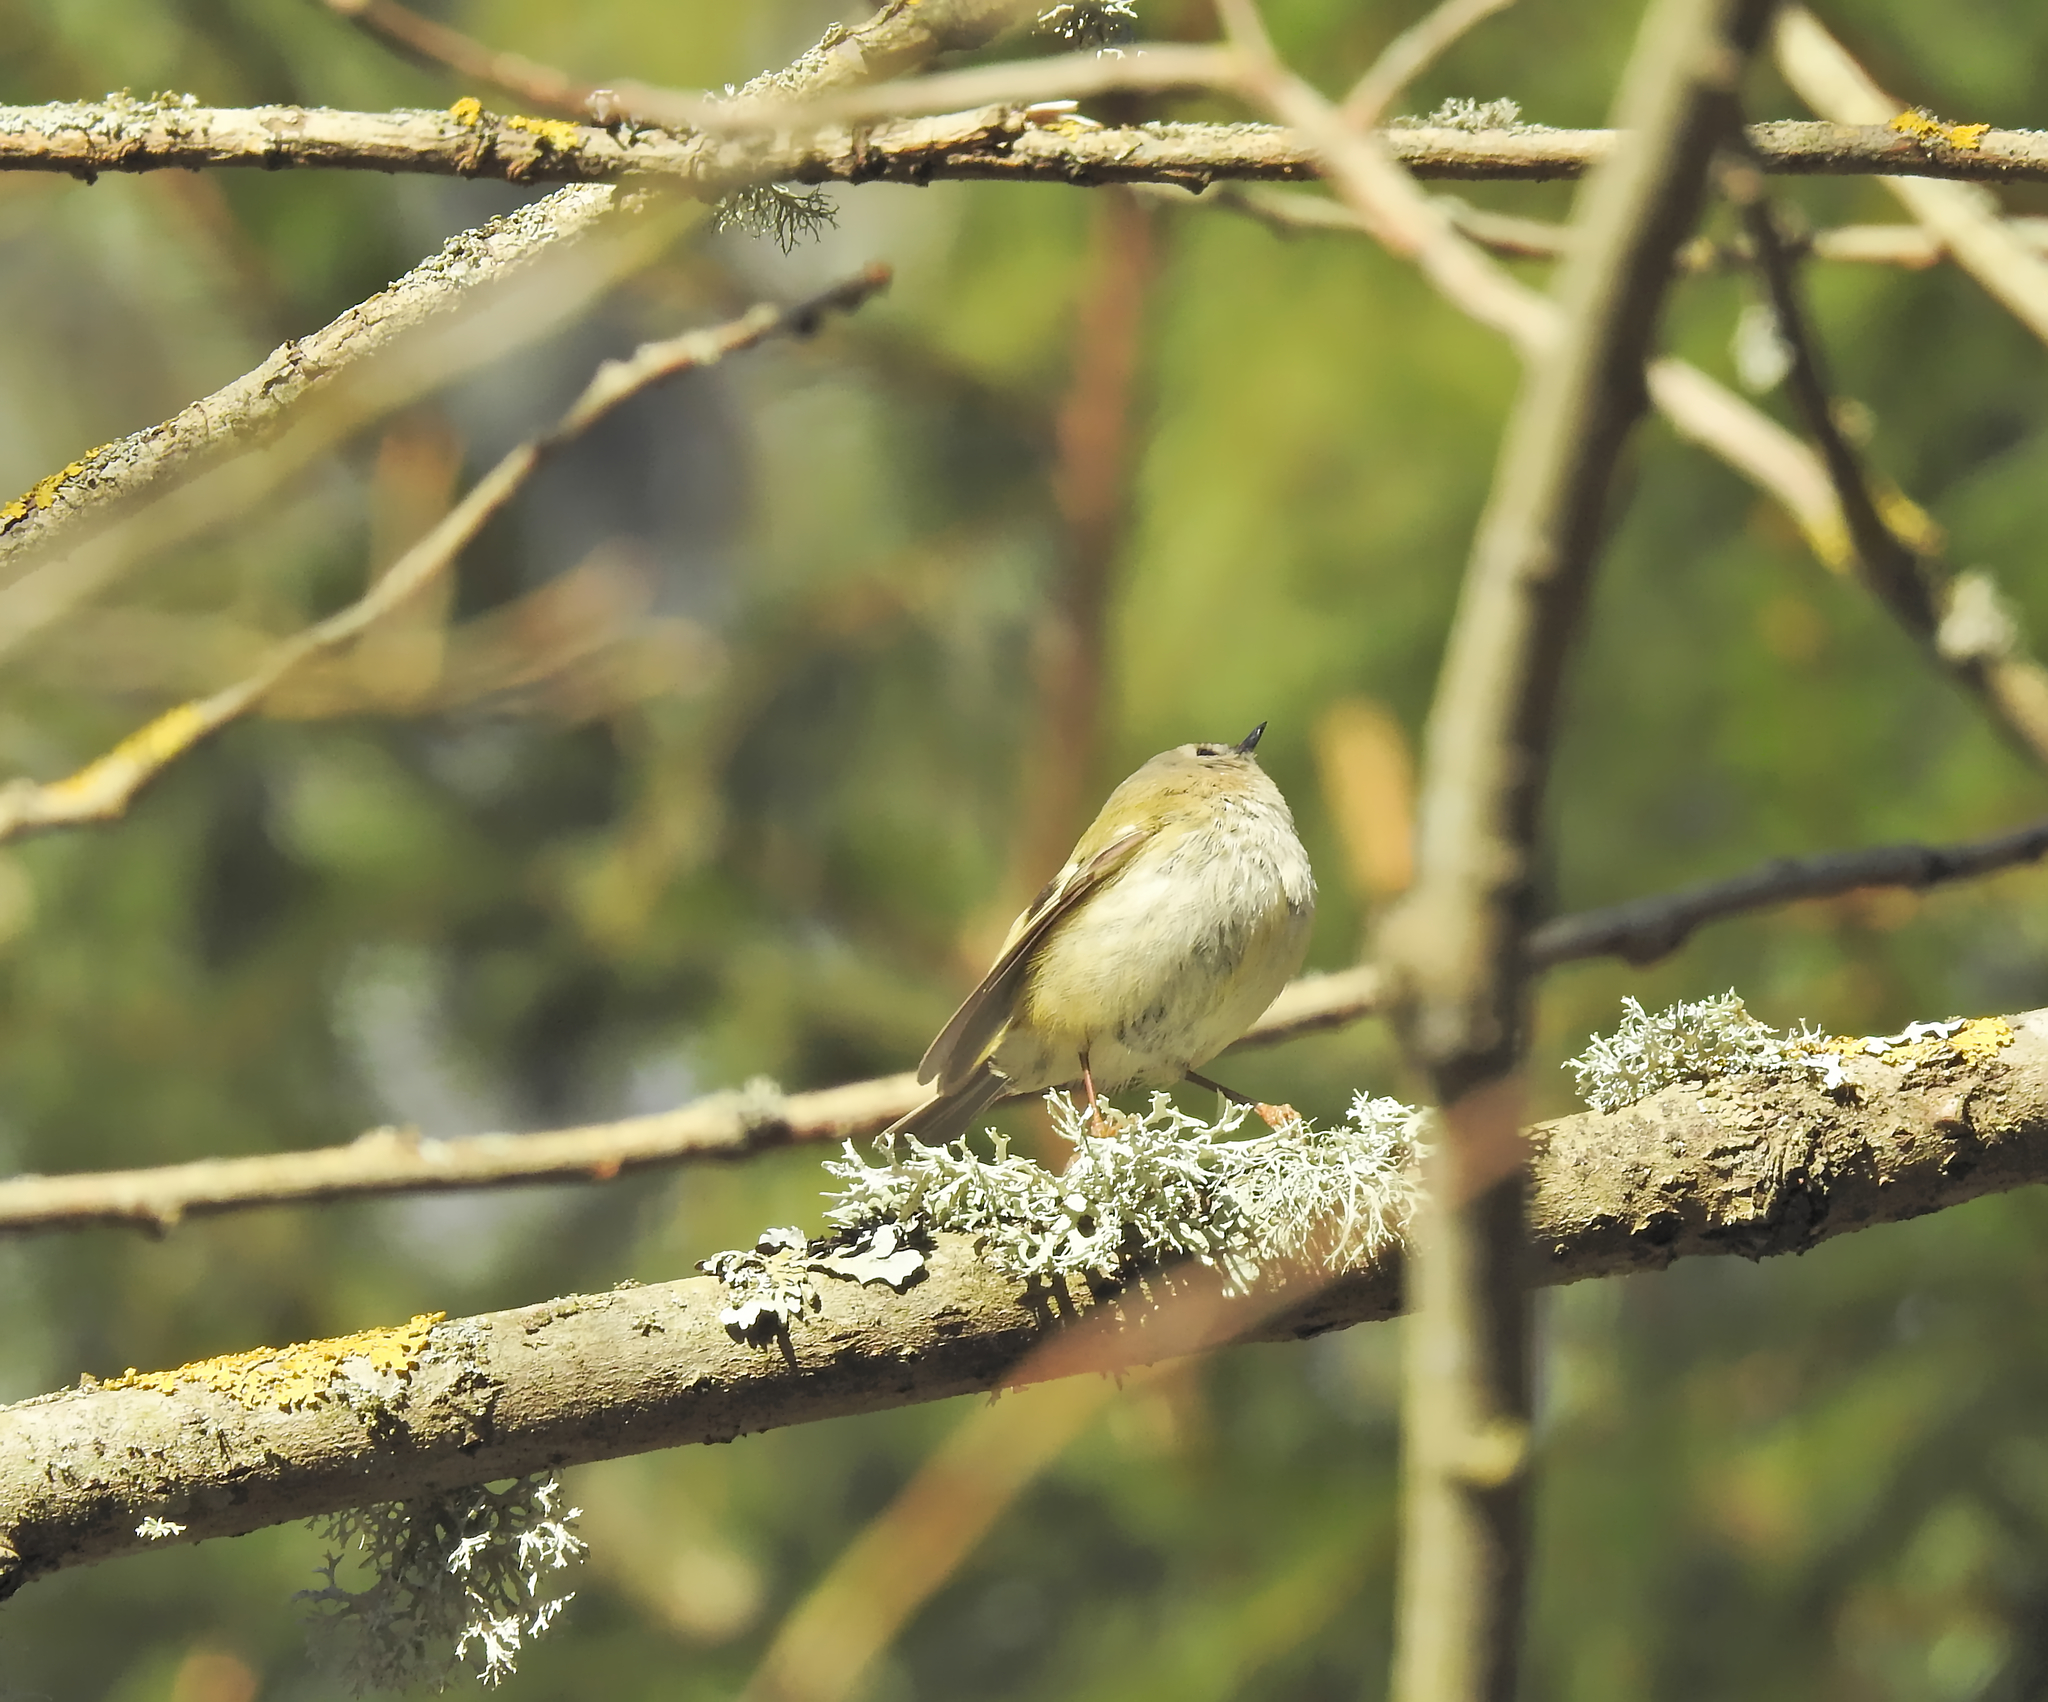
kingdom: Animalia
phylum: Chordata
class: Aves
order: Passeriformes
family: Regulidae
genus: Regulus
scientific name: Regulus regulus
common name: Goldcrest
